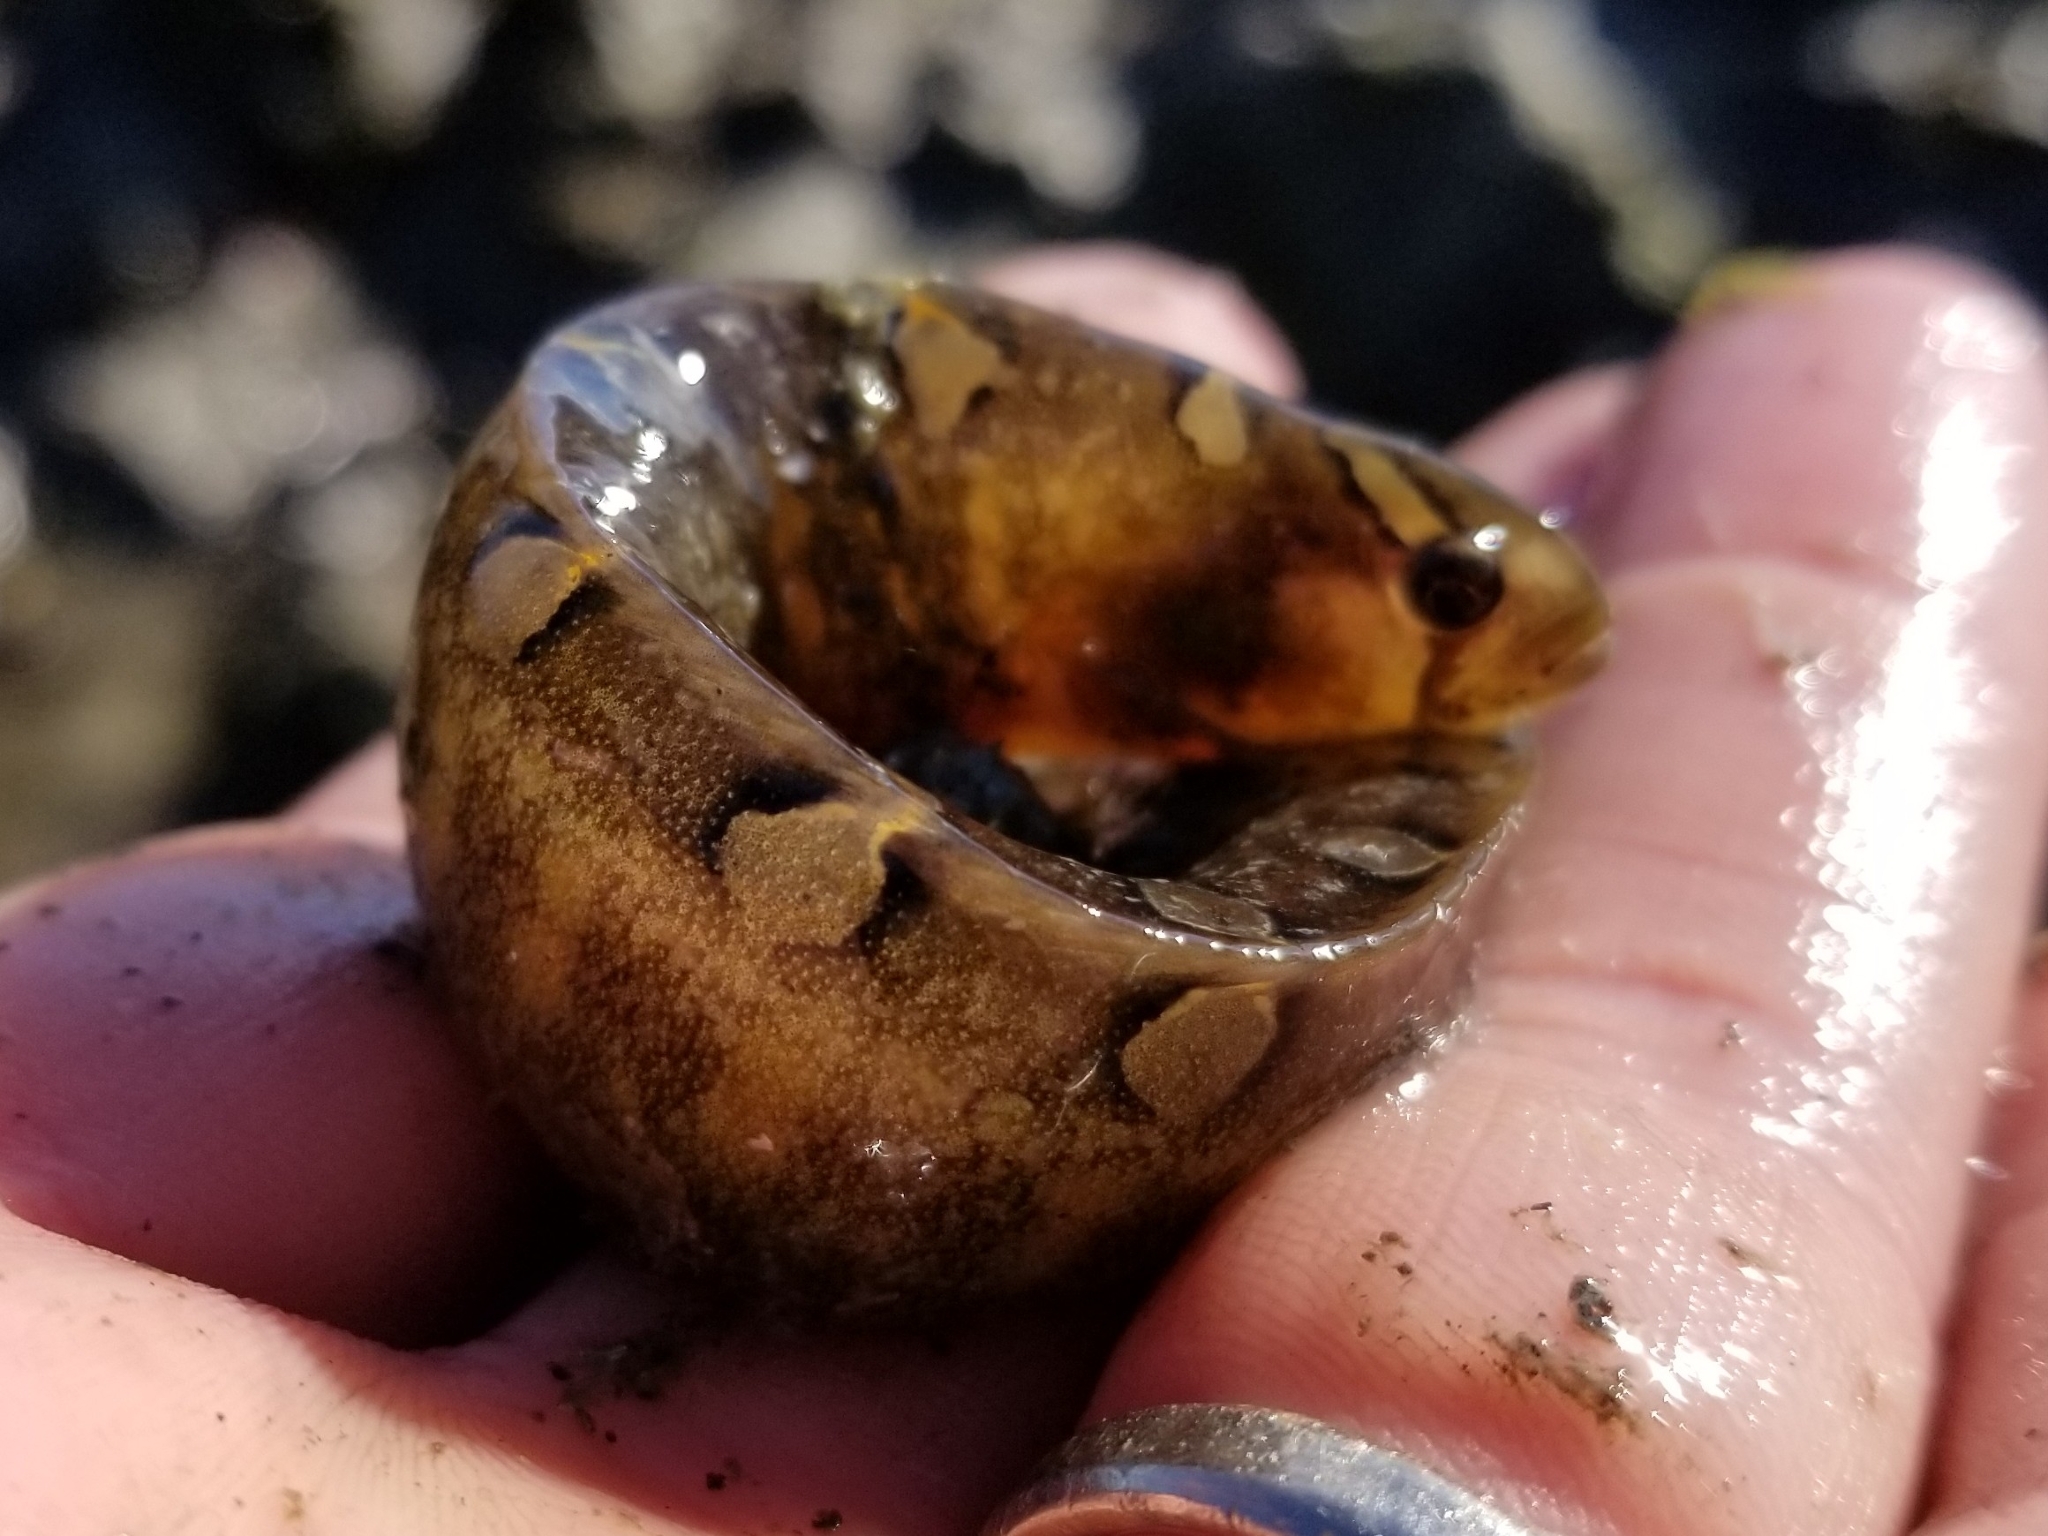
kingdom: Animalia
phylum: Chordata
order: Perciformes
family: Pholidae
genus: Pholis
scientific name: Pholis laeta
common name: Crescent gunnel
